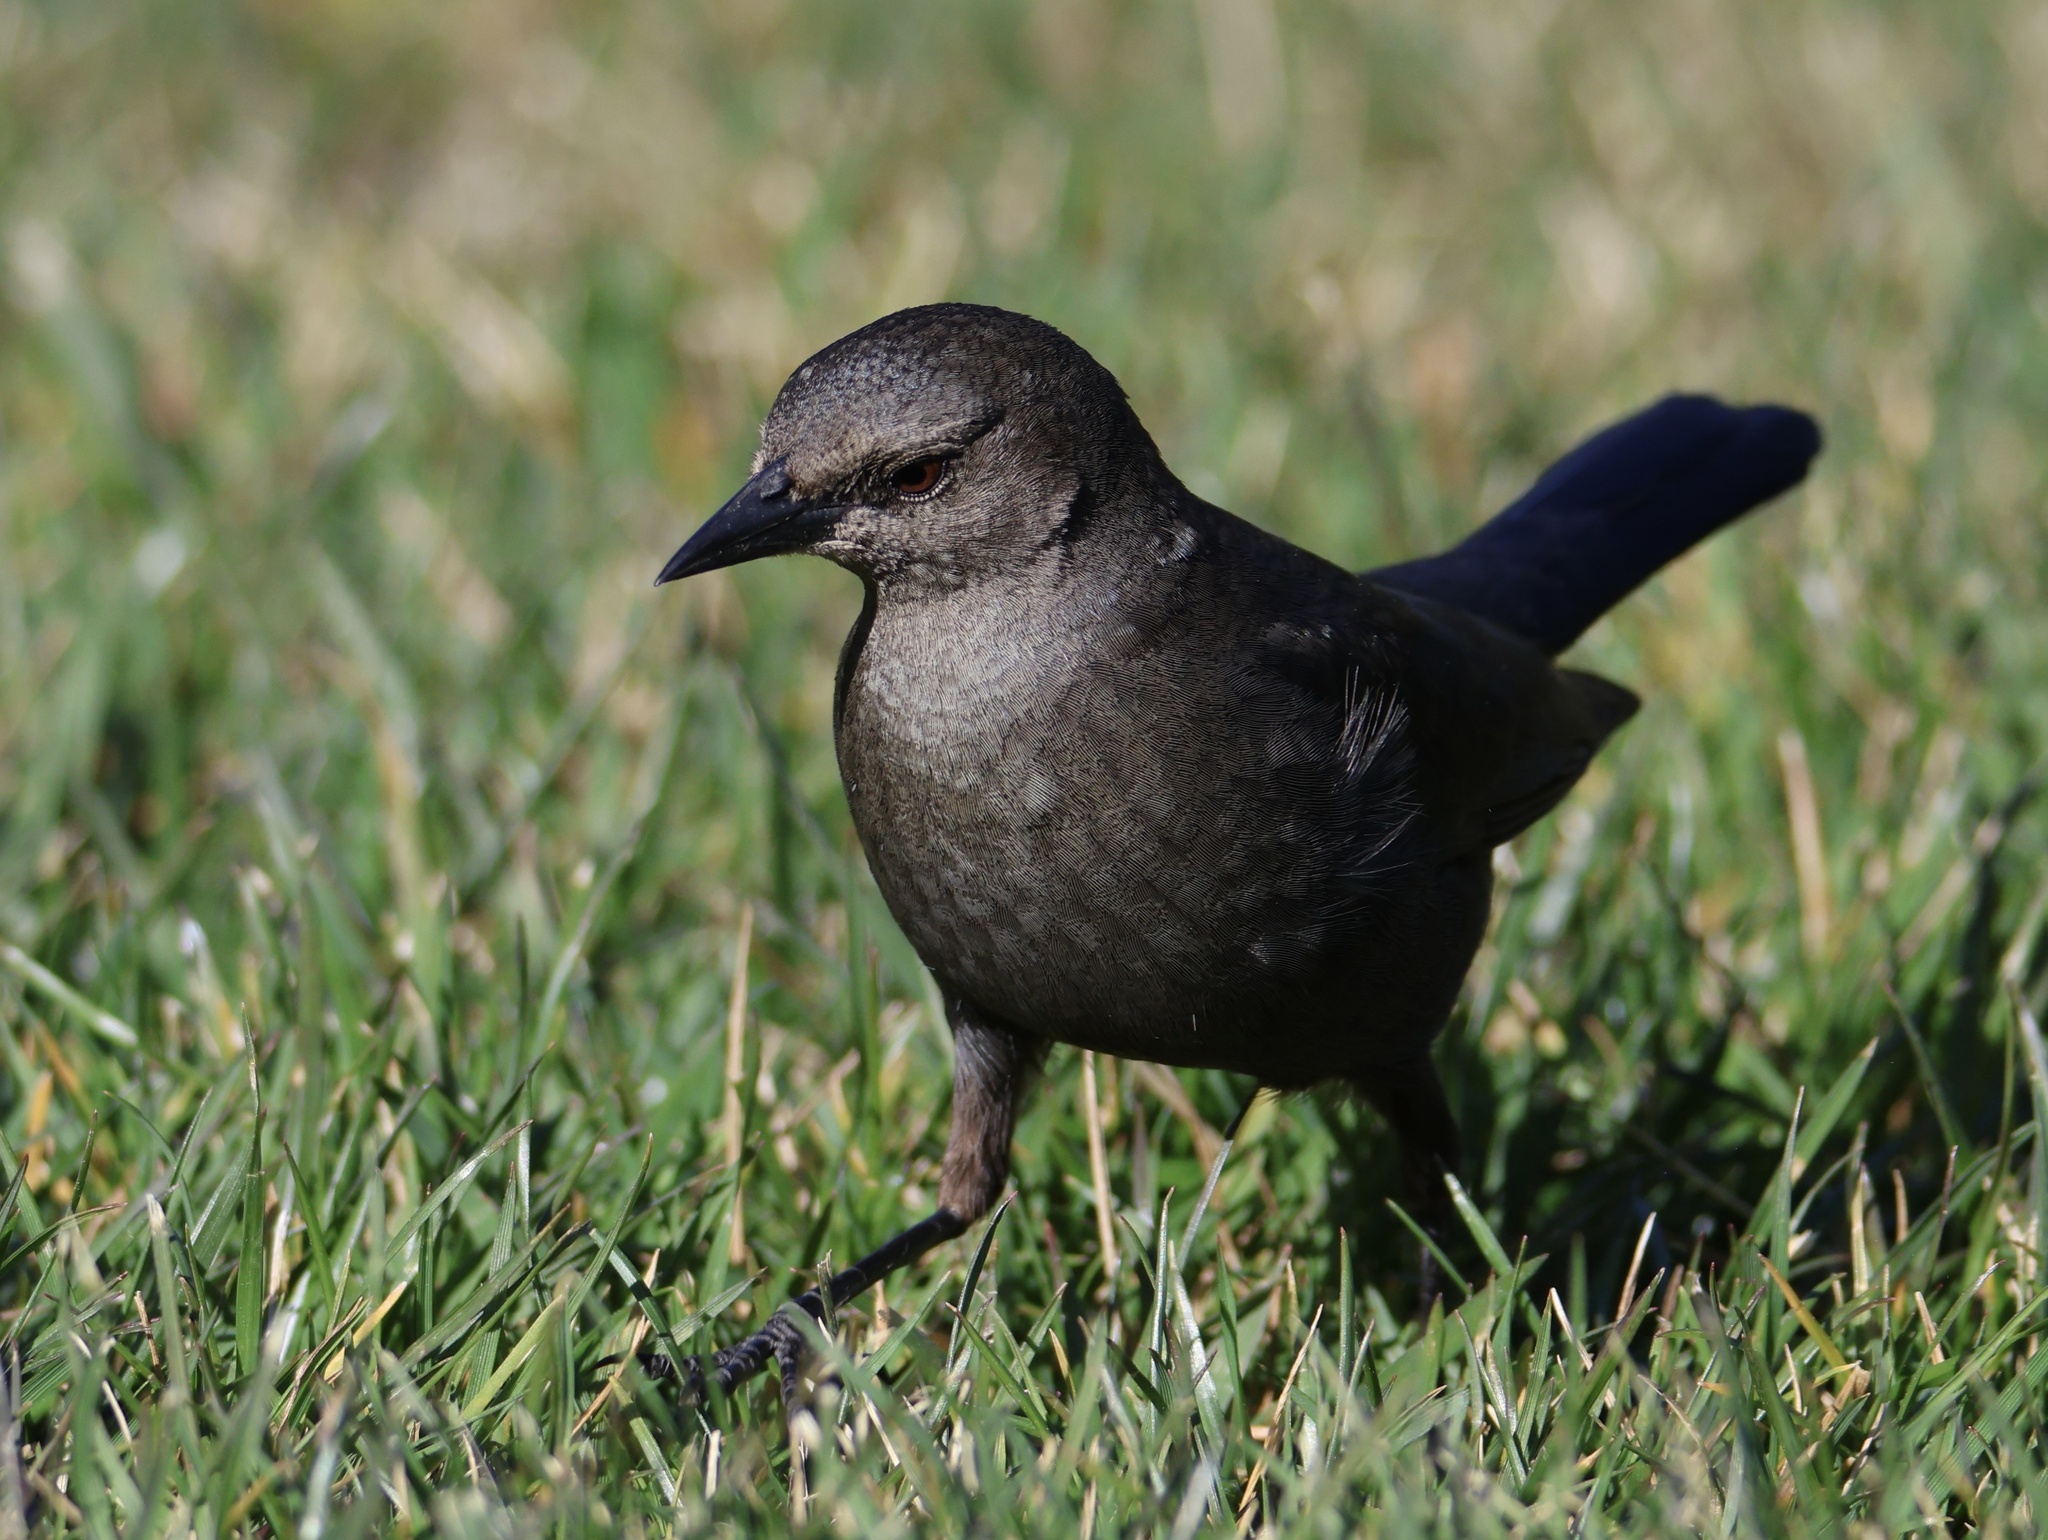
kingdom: Animalia
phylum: Chordata
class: Aves
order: Passeriformes
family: Icteridae
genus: Euphagus
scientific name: Euphagus cyanocephalus
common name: Brewer's blackbird
